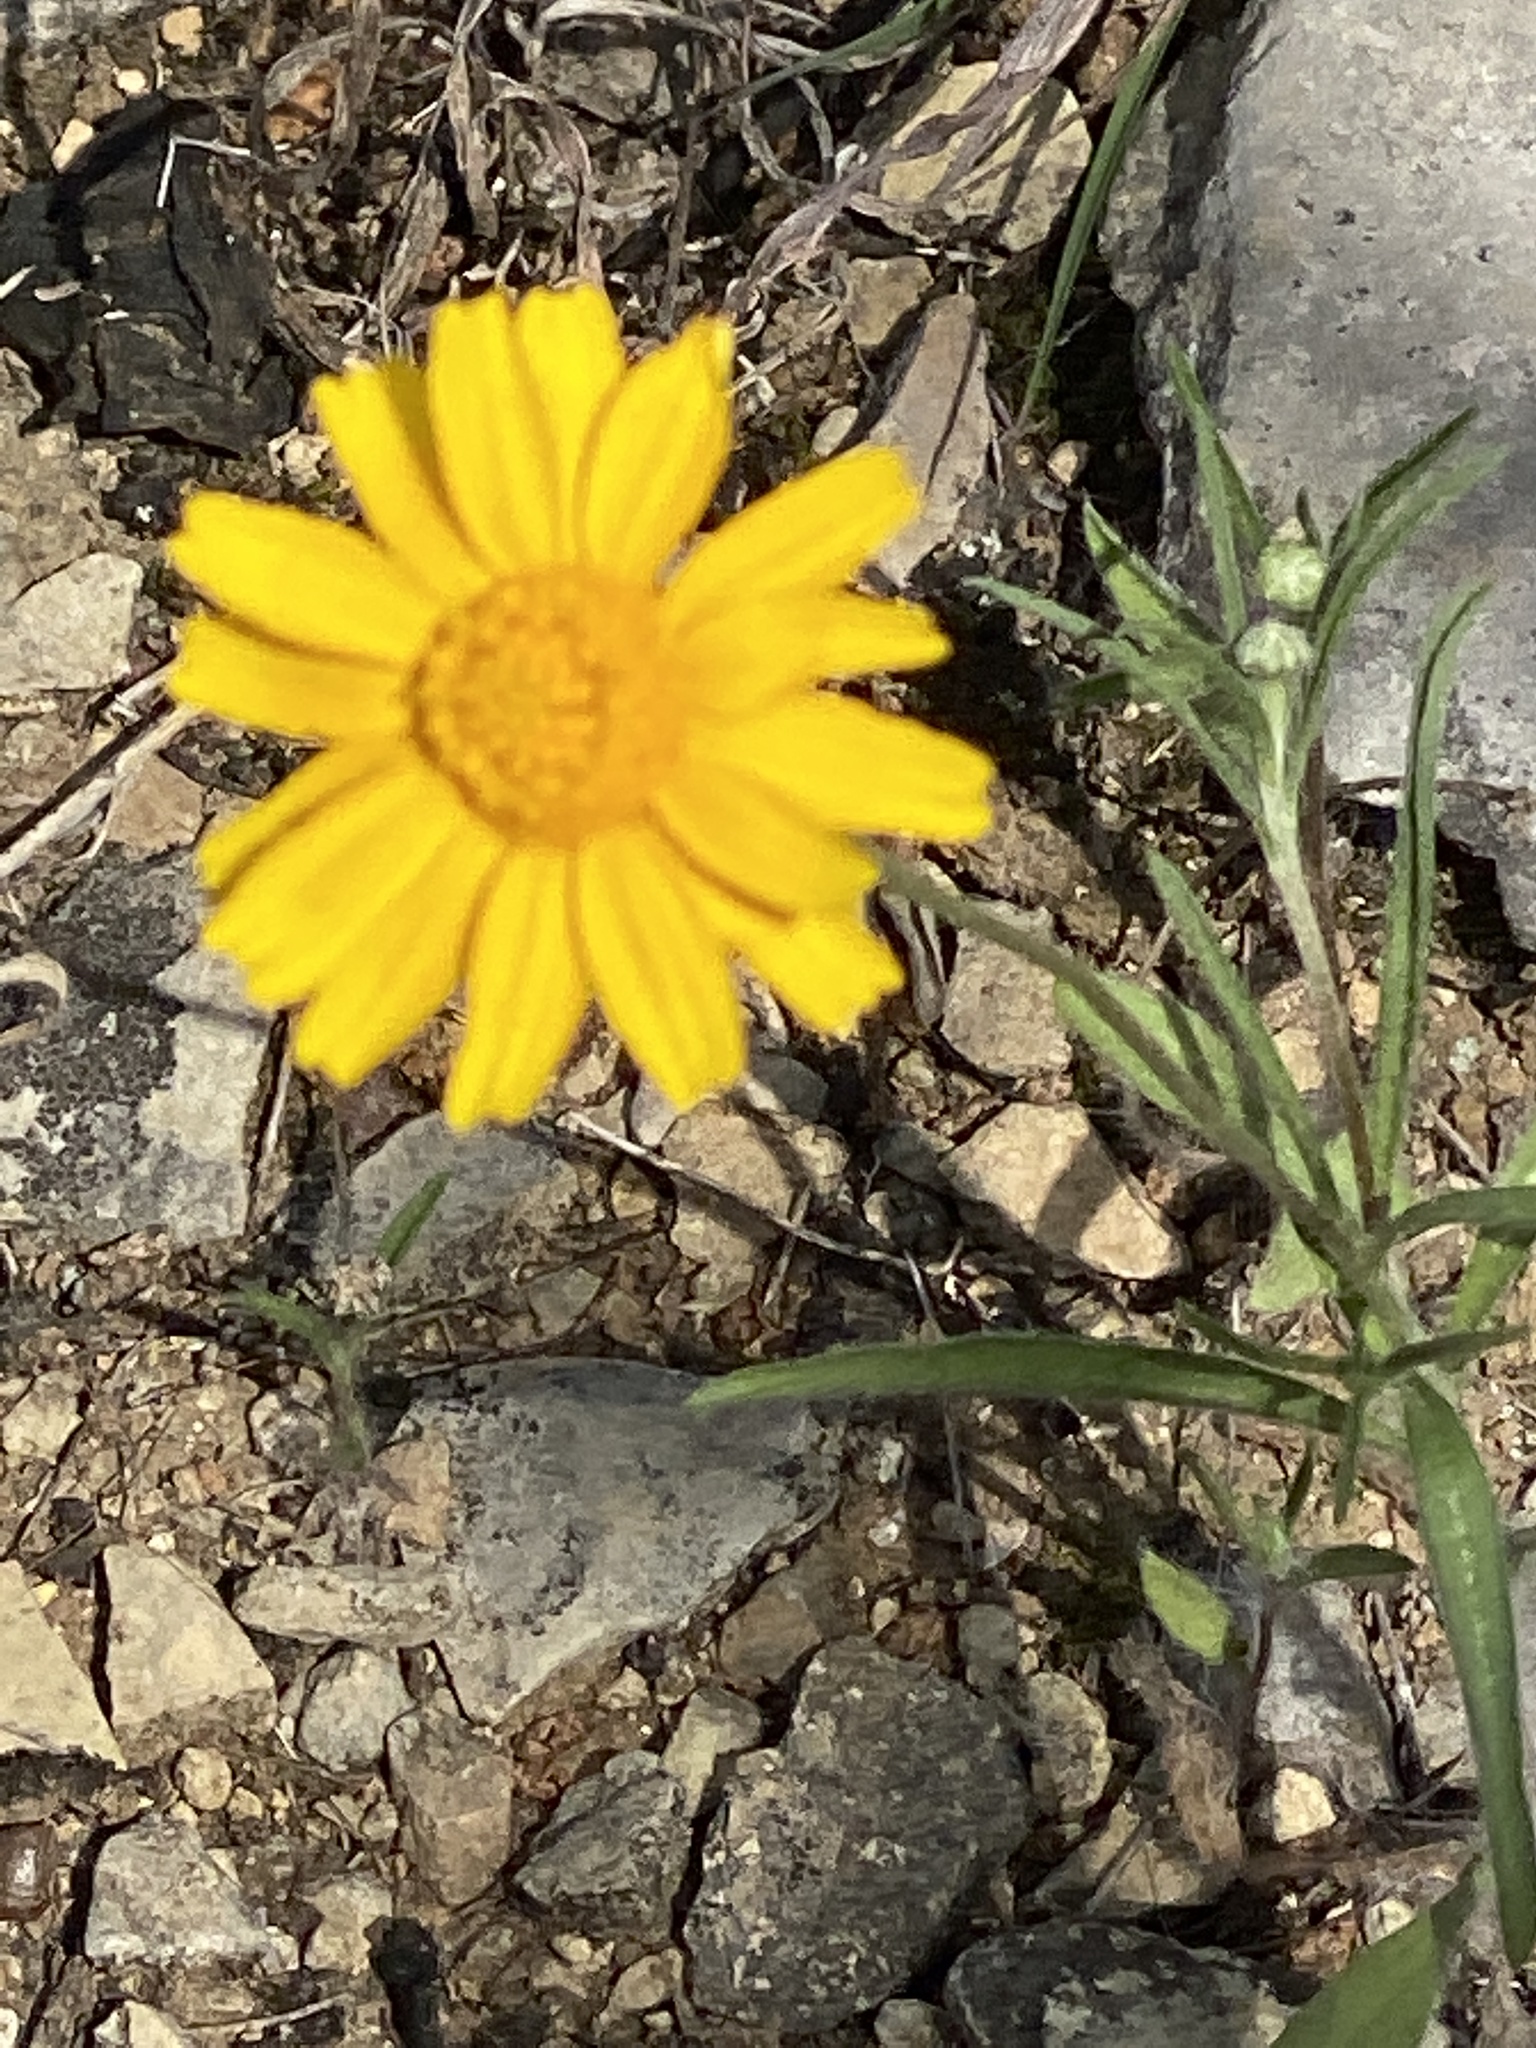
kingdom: Plantae
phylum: Tracheophyta
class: Magnoliopsida
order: Asterales
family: Asteraceae
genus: Tetraneuris
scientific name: Tetraneuris linearifolia
